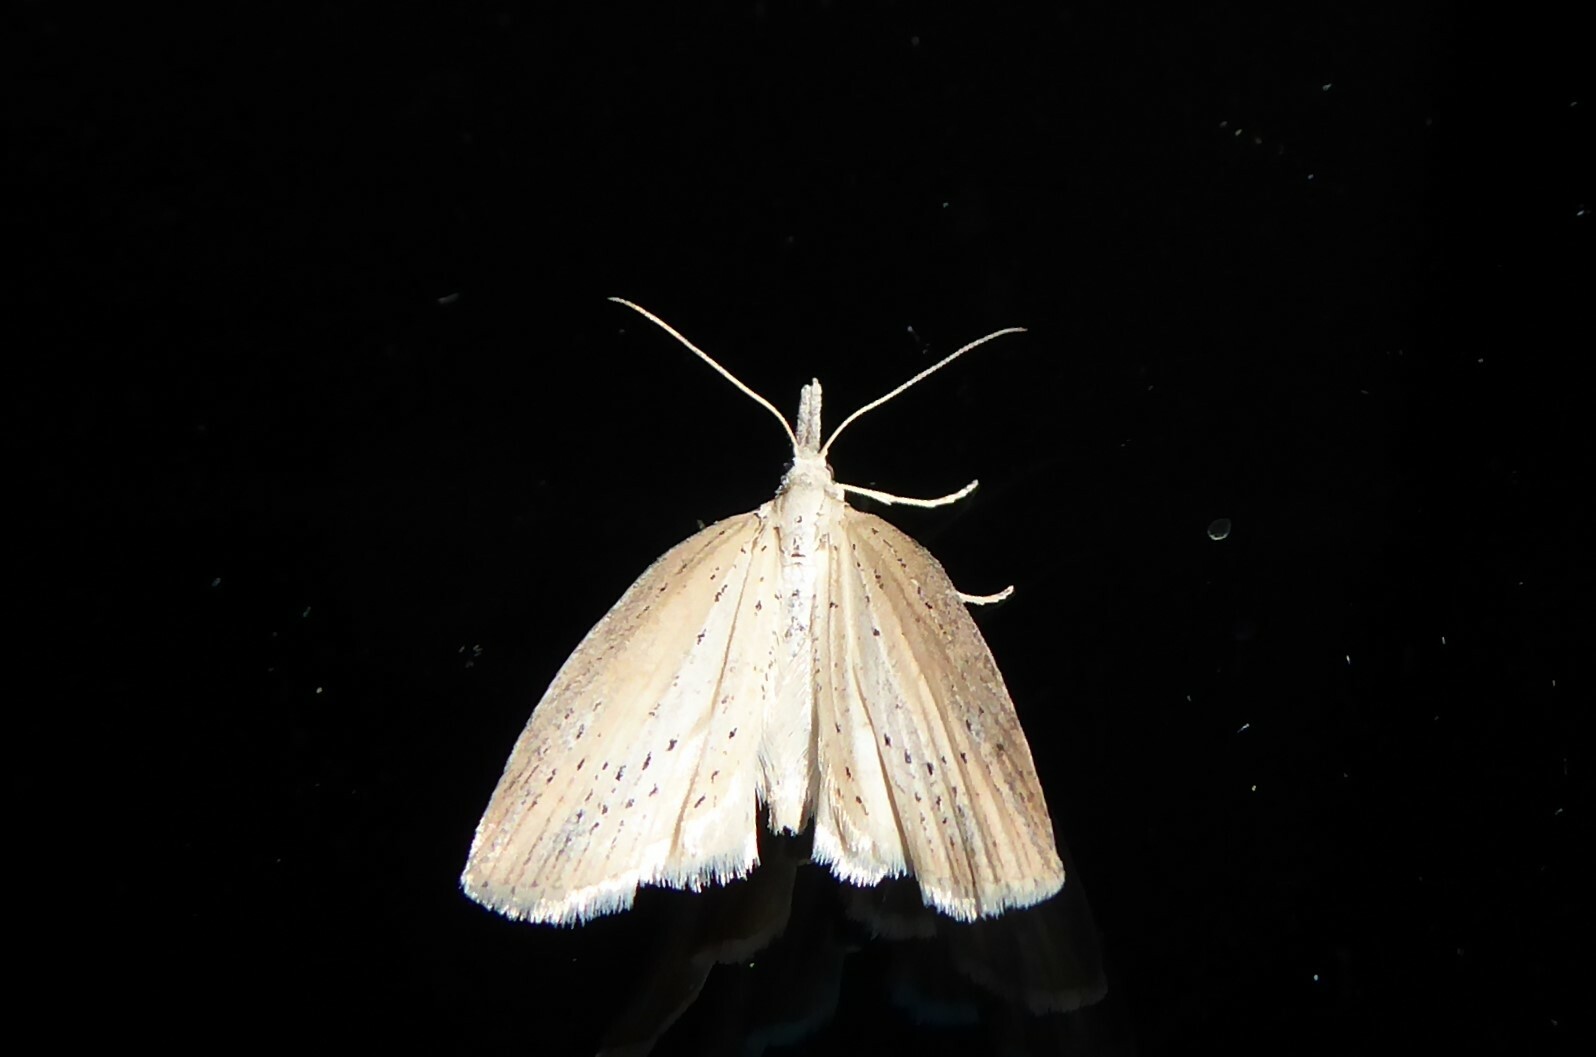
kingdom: Animalia
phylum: Arthropoda
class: Insecta
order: Lepidoptera
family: Geometridae
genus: Microdes
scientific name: Microdes epicryptis
